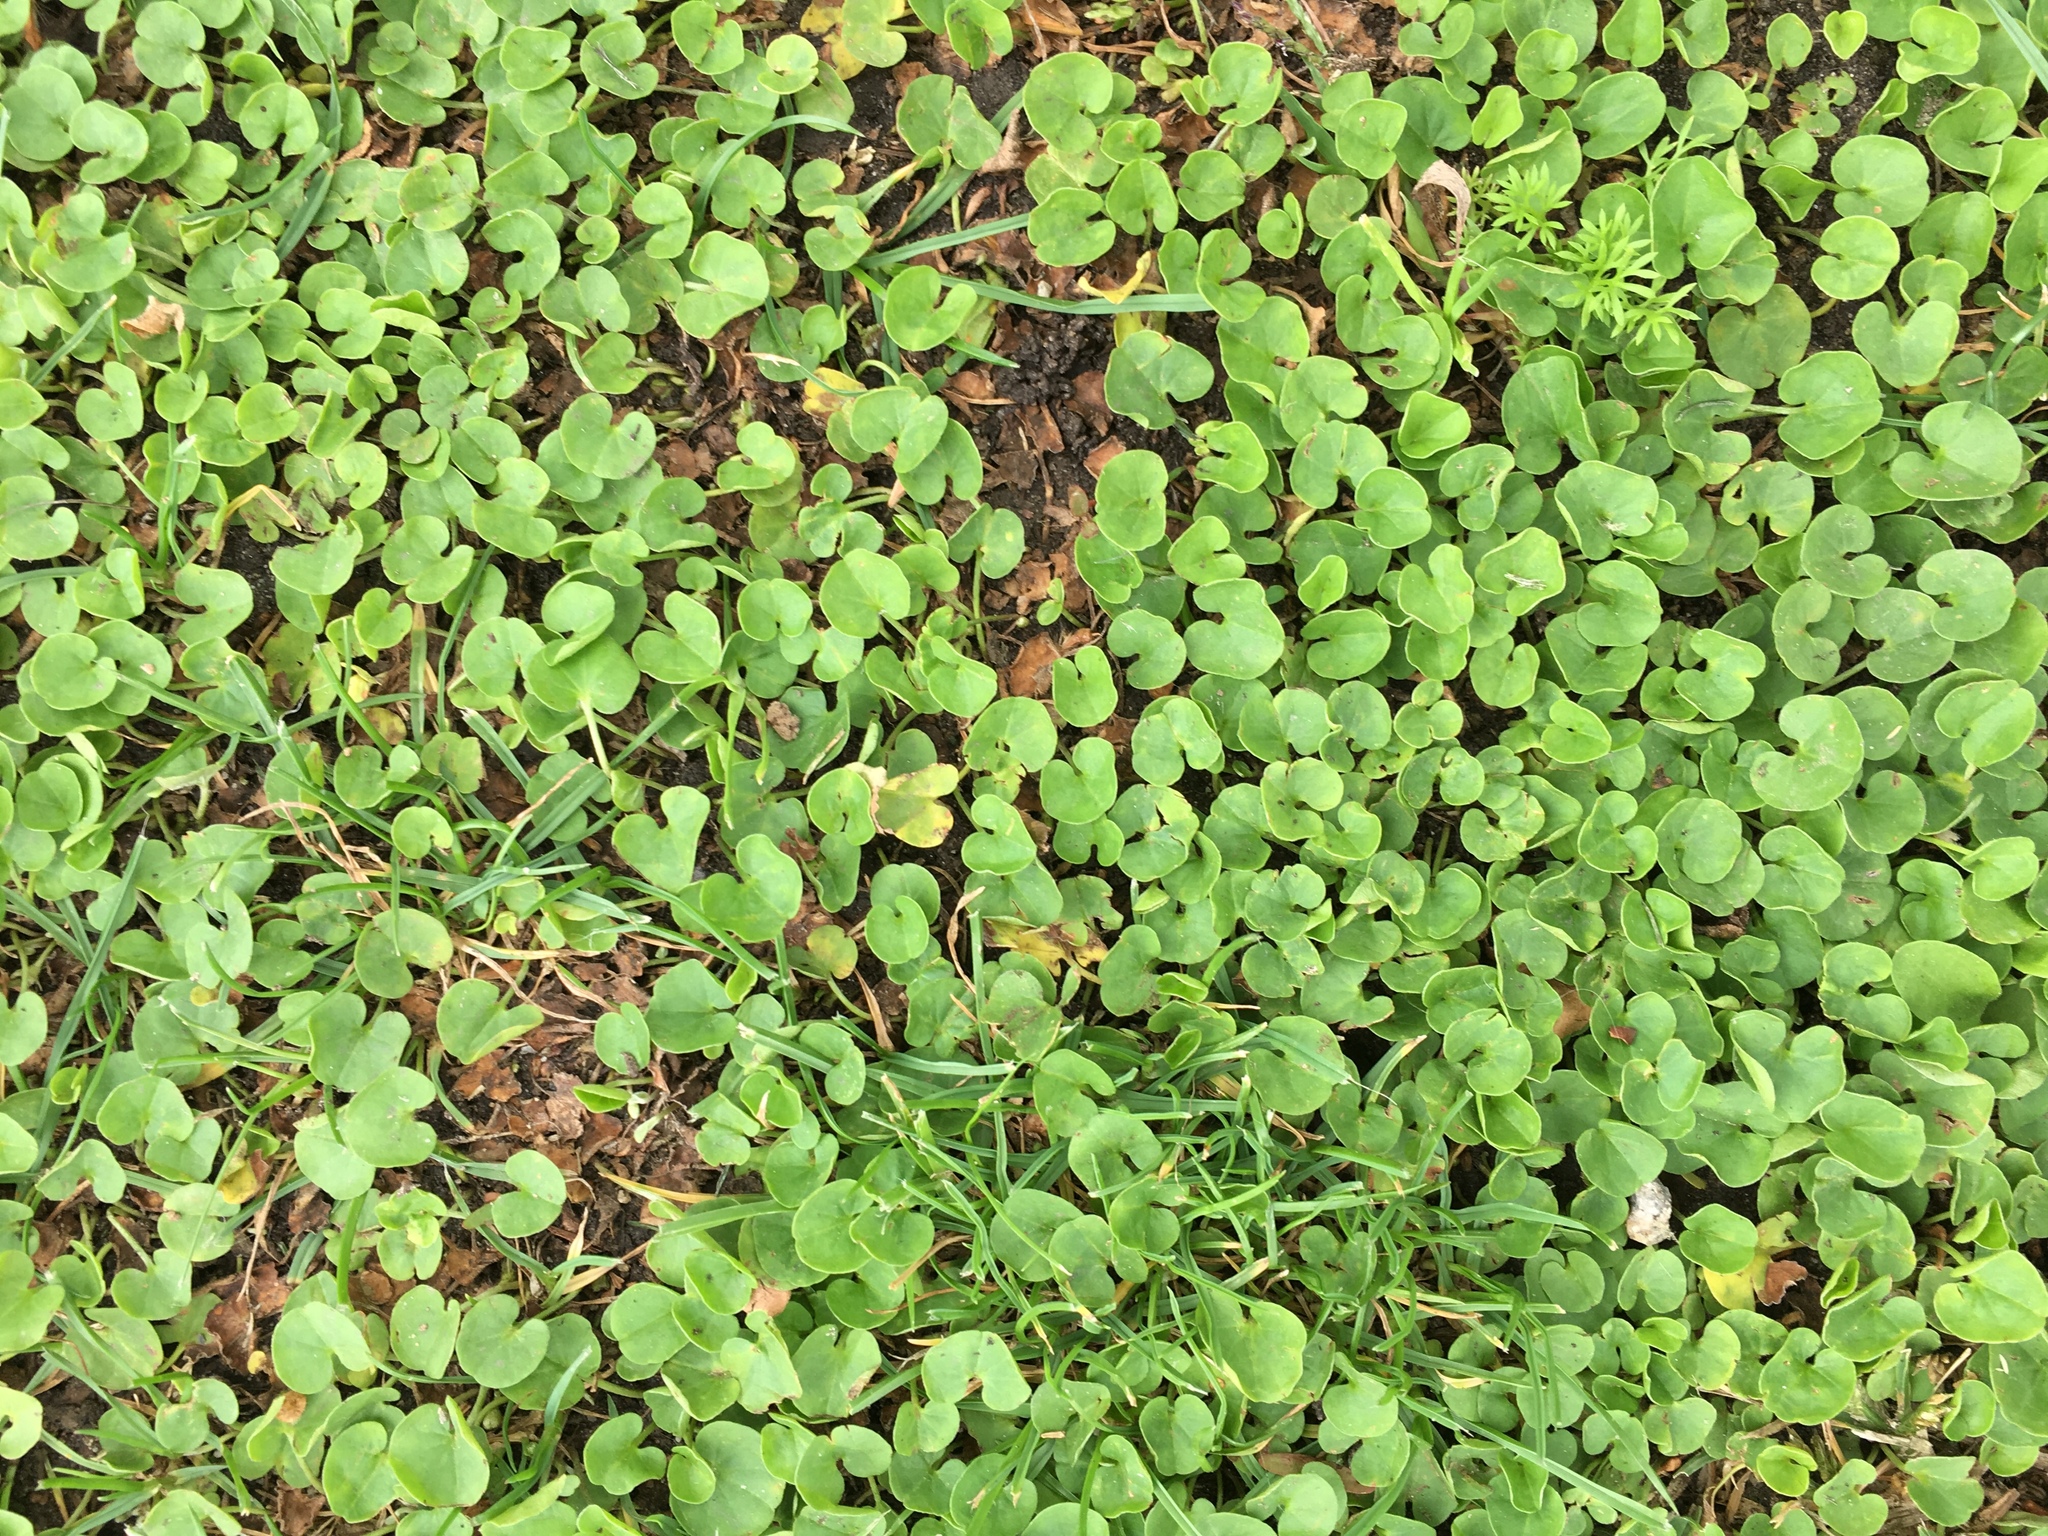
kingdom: Plantae
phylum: Tracheophyta
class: Magnoliopsida
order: Solanales
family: Convolvulaceae
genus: Dichondra
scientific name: Dichondra micrantha
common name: Kidneyweed
